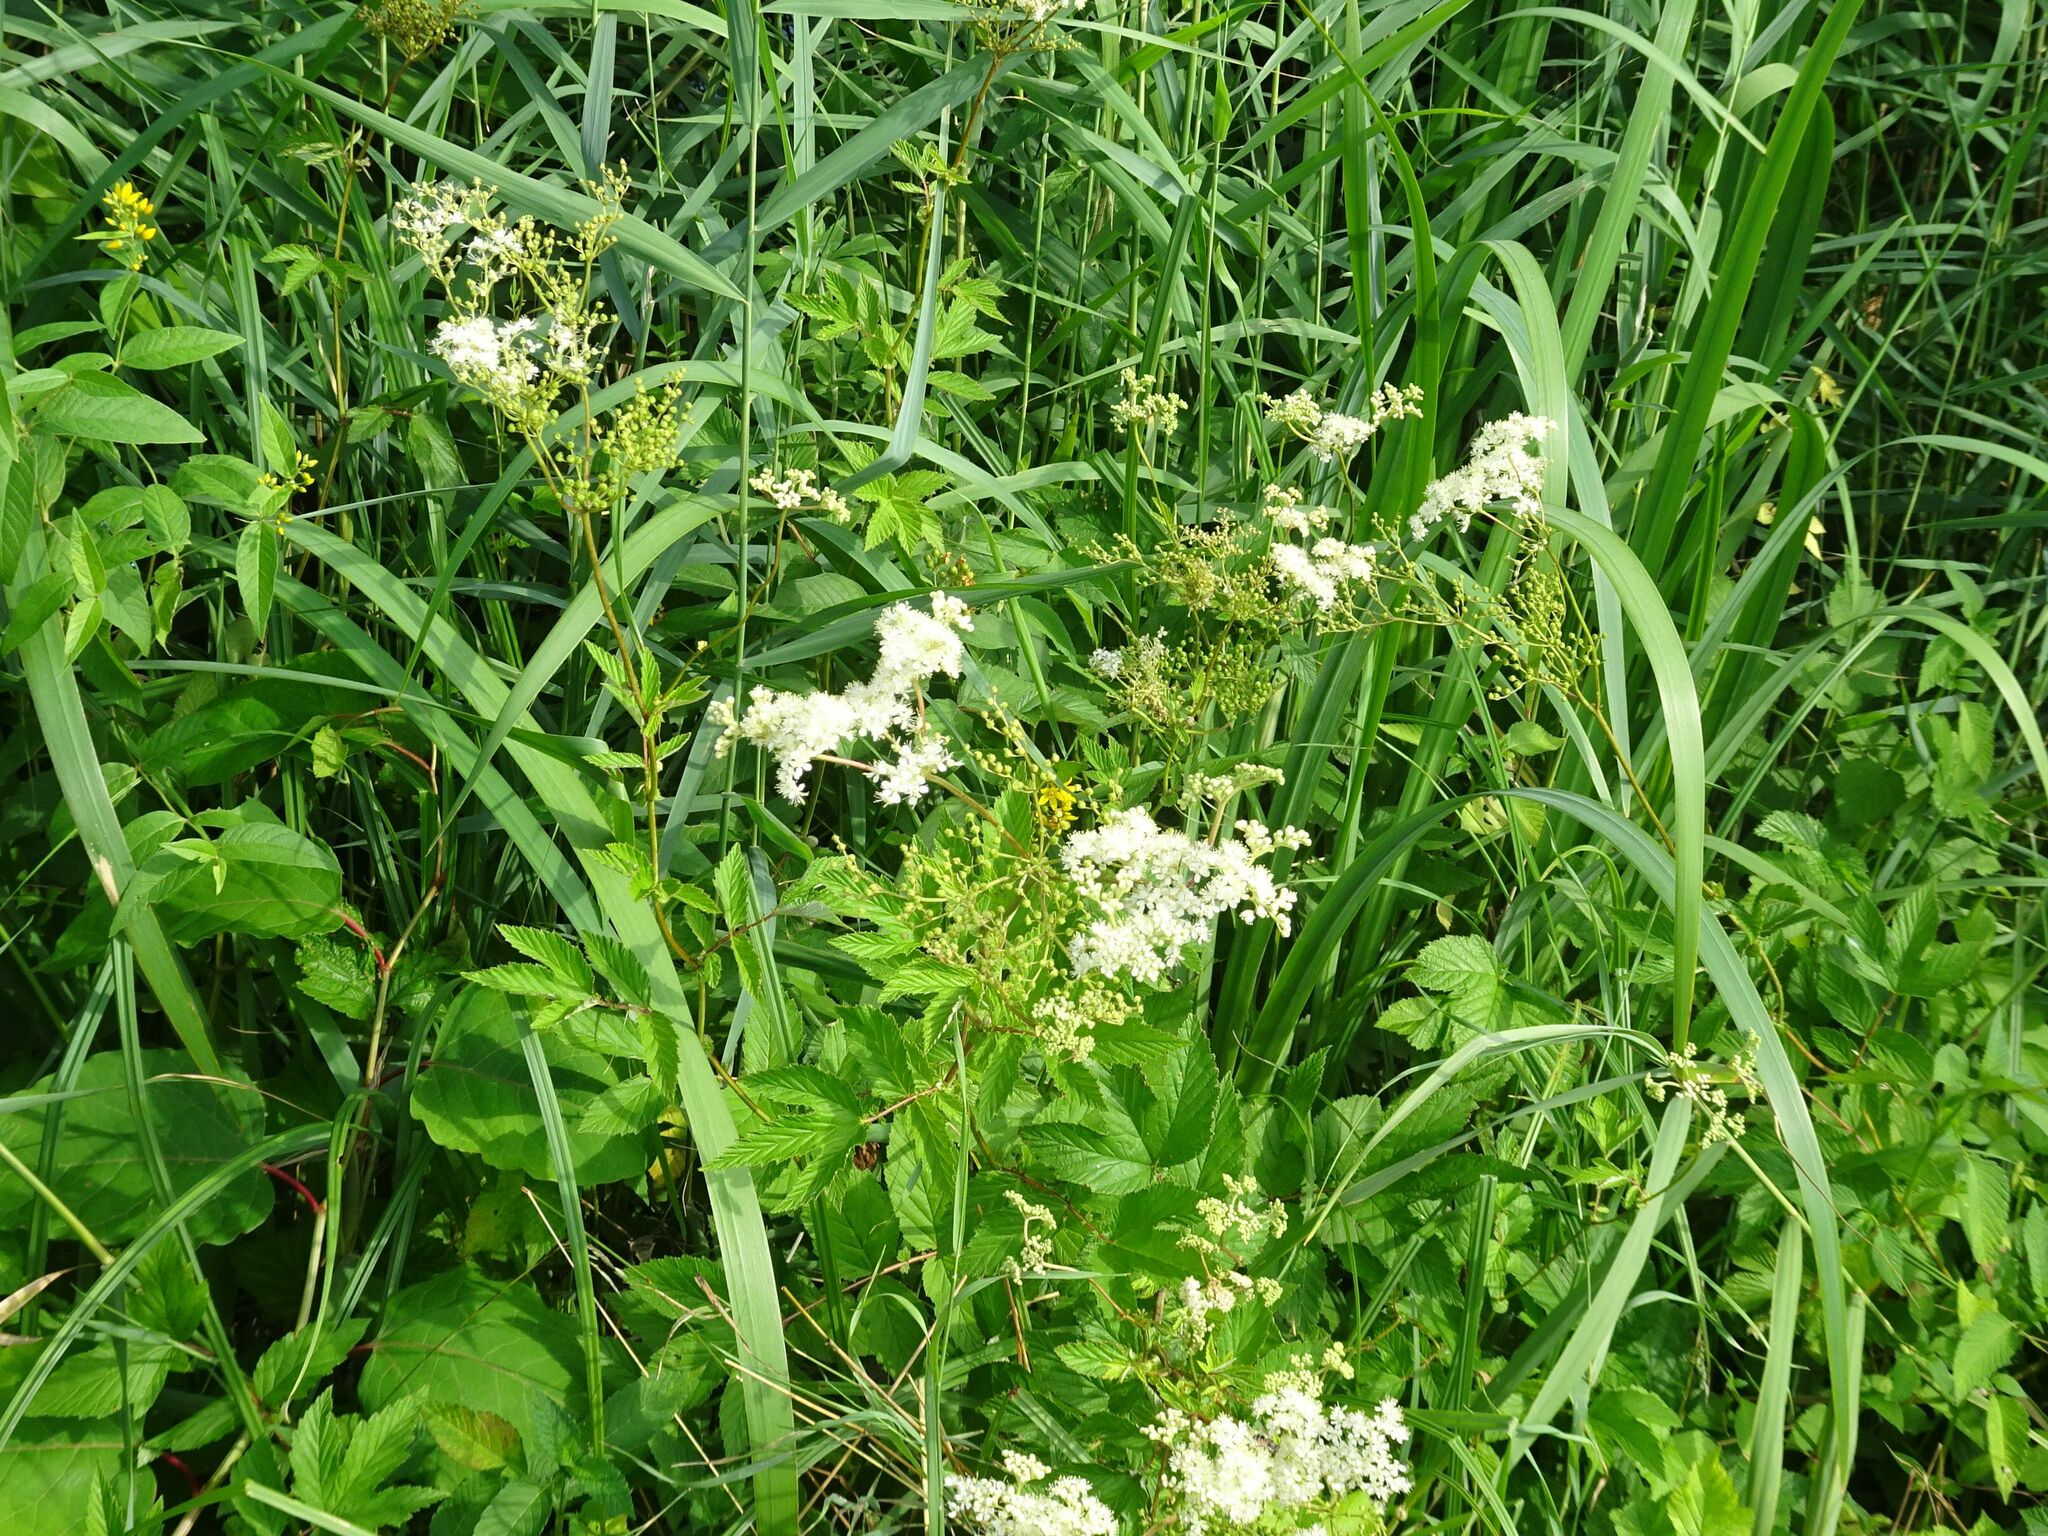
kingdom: Plantae
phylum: Tracheophyta
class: Magnoliopsida
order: Rosales
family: Rosaceae
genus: Filipendula
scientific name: Filipendula ulmaria
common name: Meadowsweet
